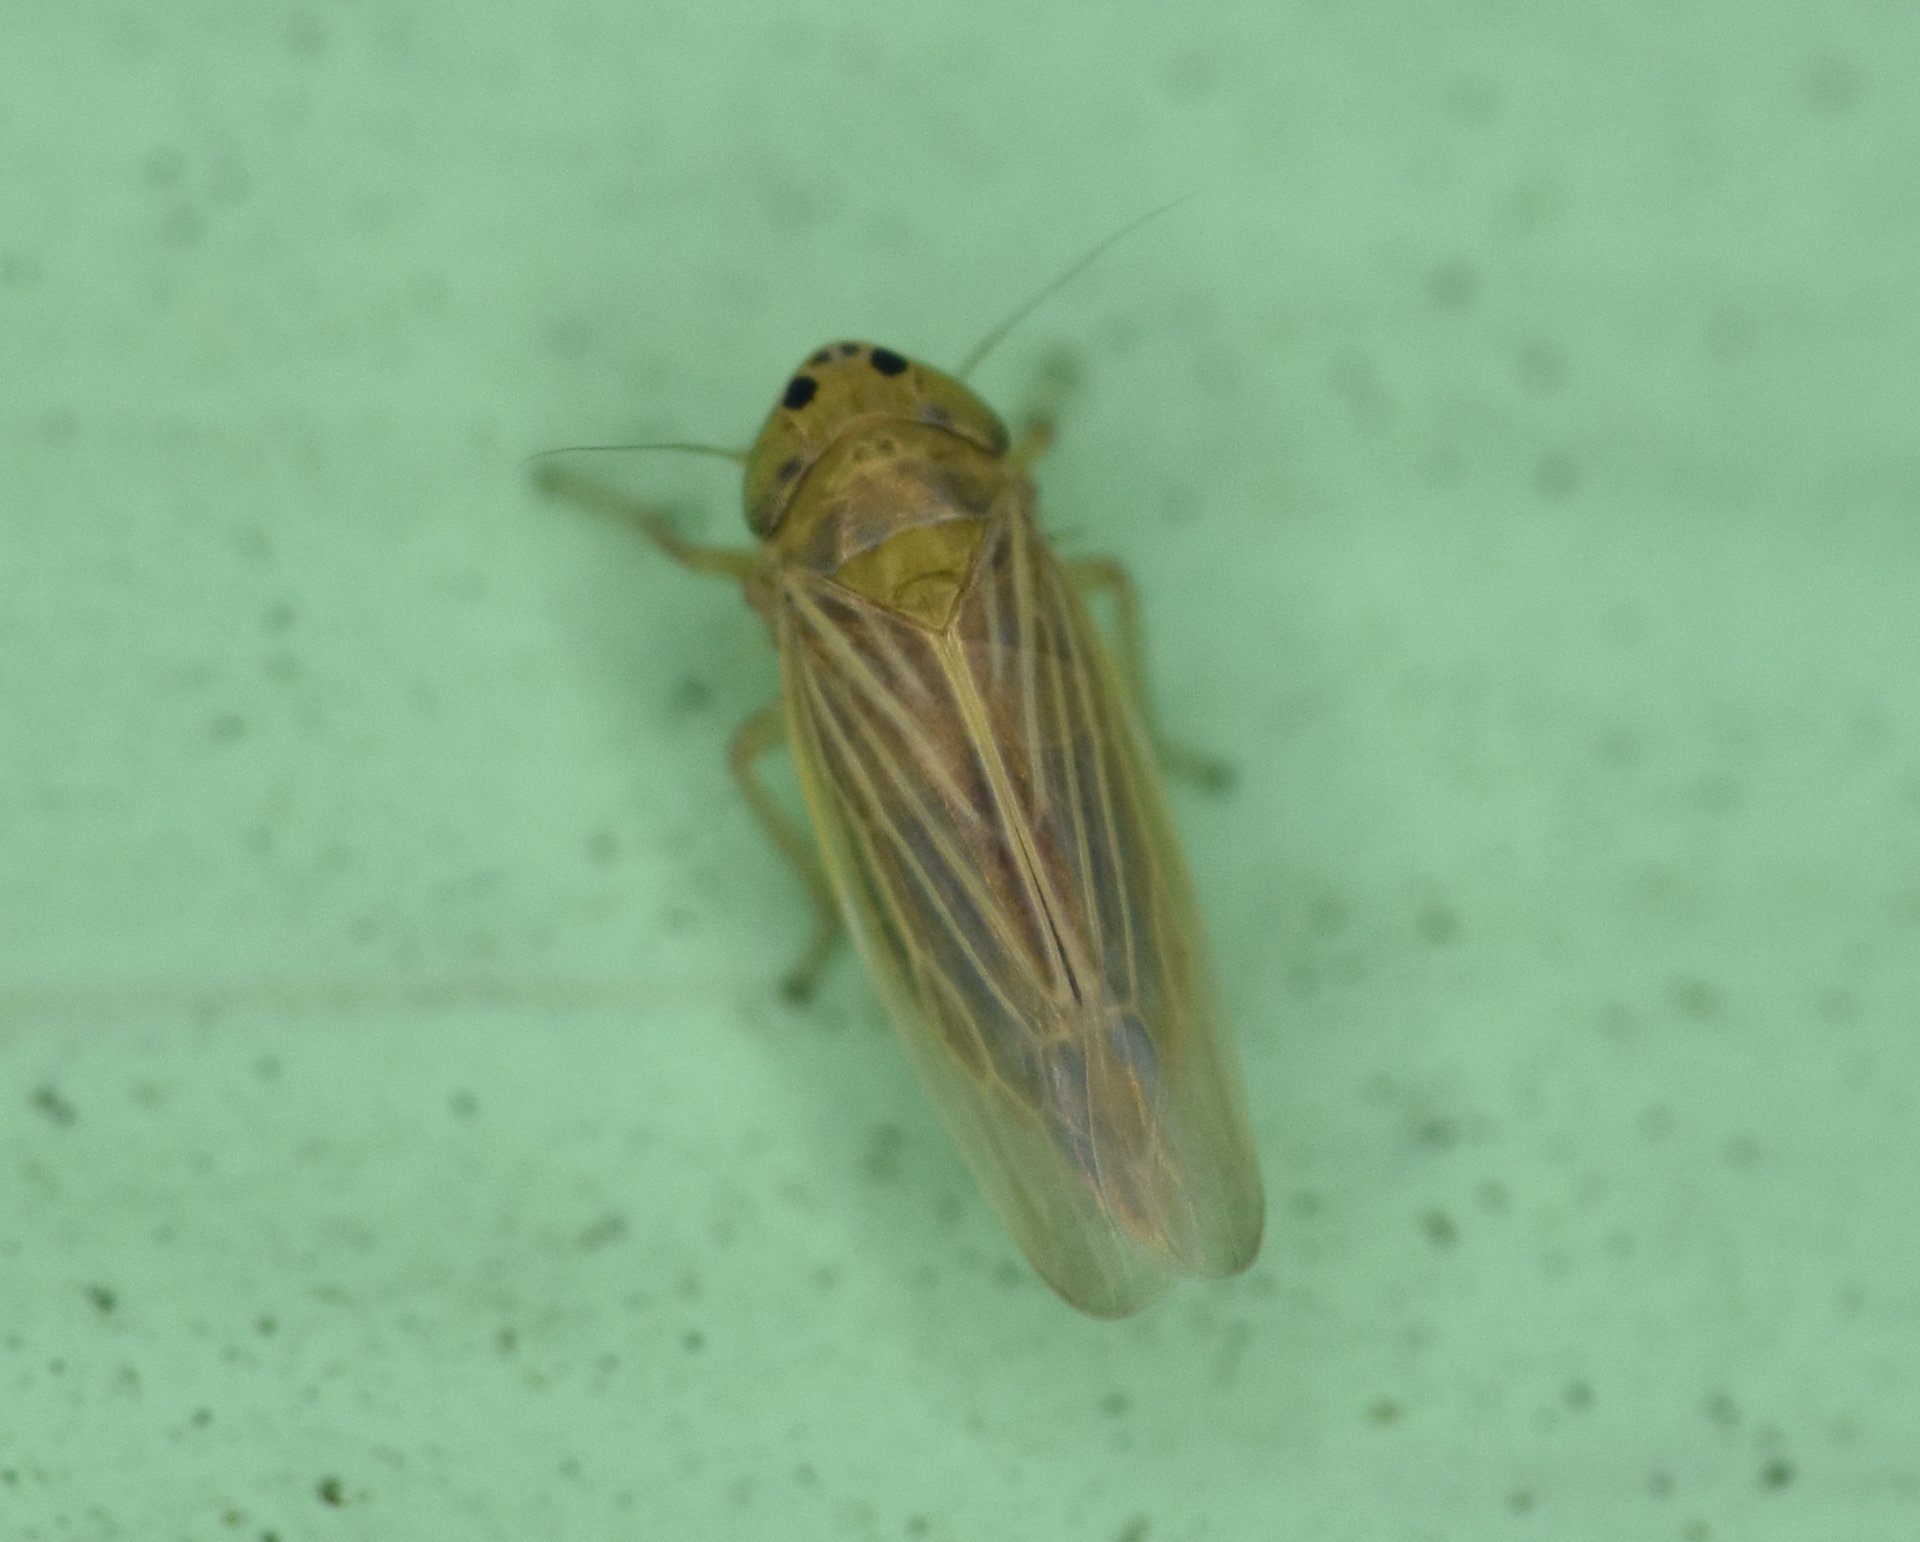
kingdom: Animalia
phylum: Arthropoda
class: Insecta
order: Hemiptera
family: Cicadellidae
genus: Graminella
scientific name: Graminella cognita
